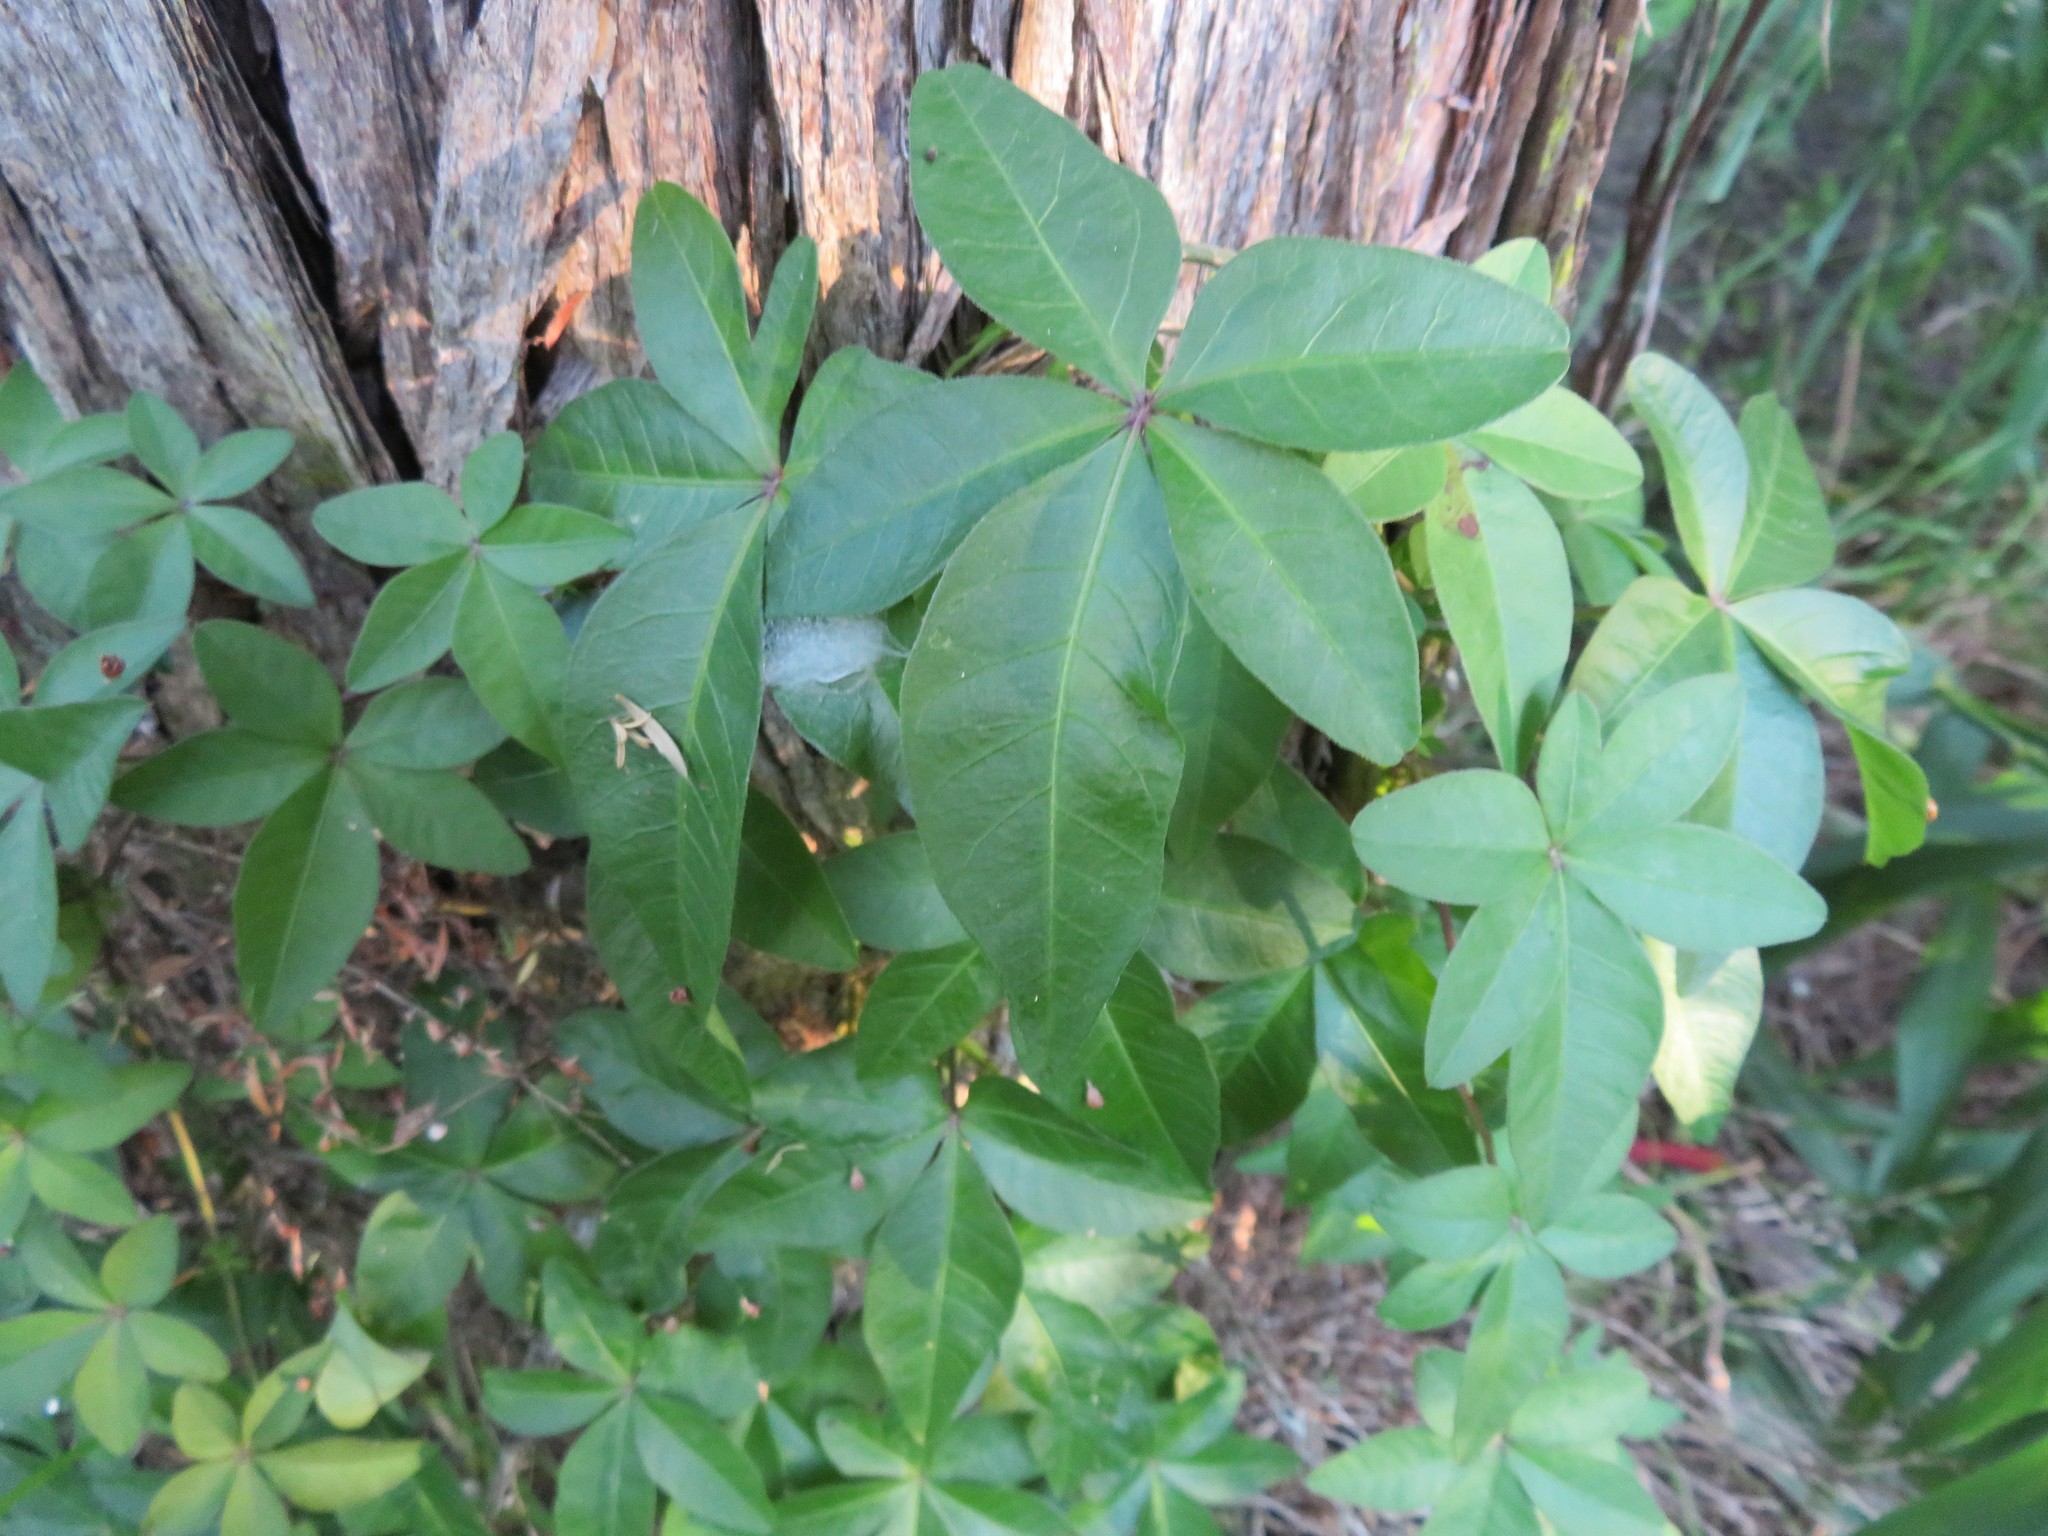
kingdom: Plantae
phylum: Tracheophyta
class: Magnoliopsida
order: Solanales
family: Convolvulaceae
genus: Ipomoea
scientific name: Ipomoea cairica
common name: Mile a minute vine
